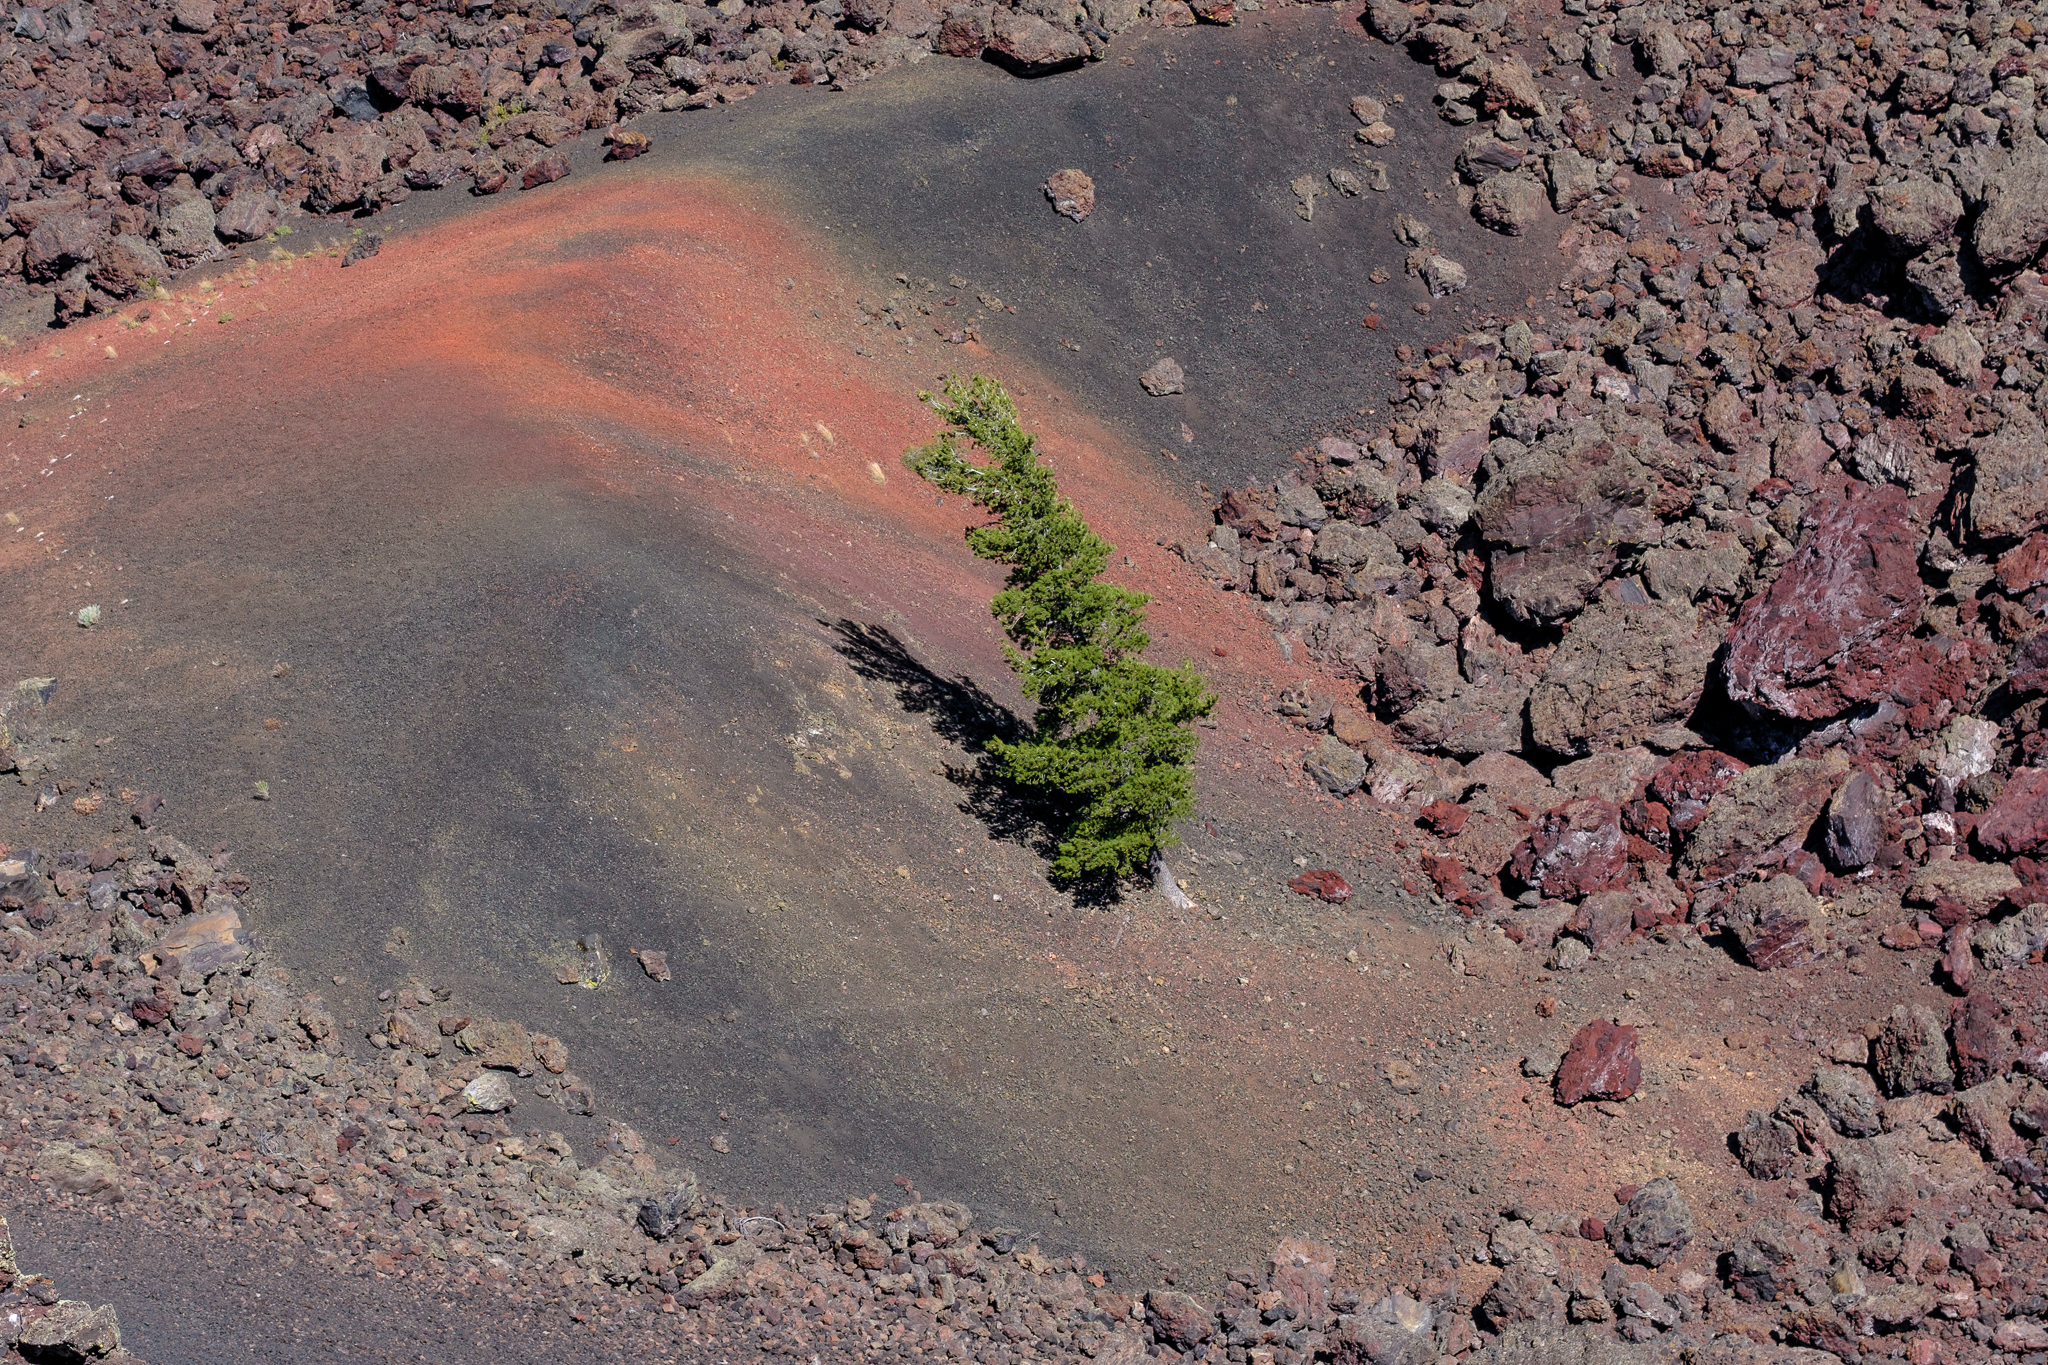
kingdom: Plantae
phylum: Tracheophyta
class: Pinopsida
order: Pinales
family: Pinaceae
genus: Pinus
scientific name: Pinus flexilis
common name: Limber pine
